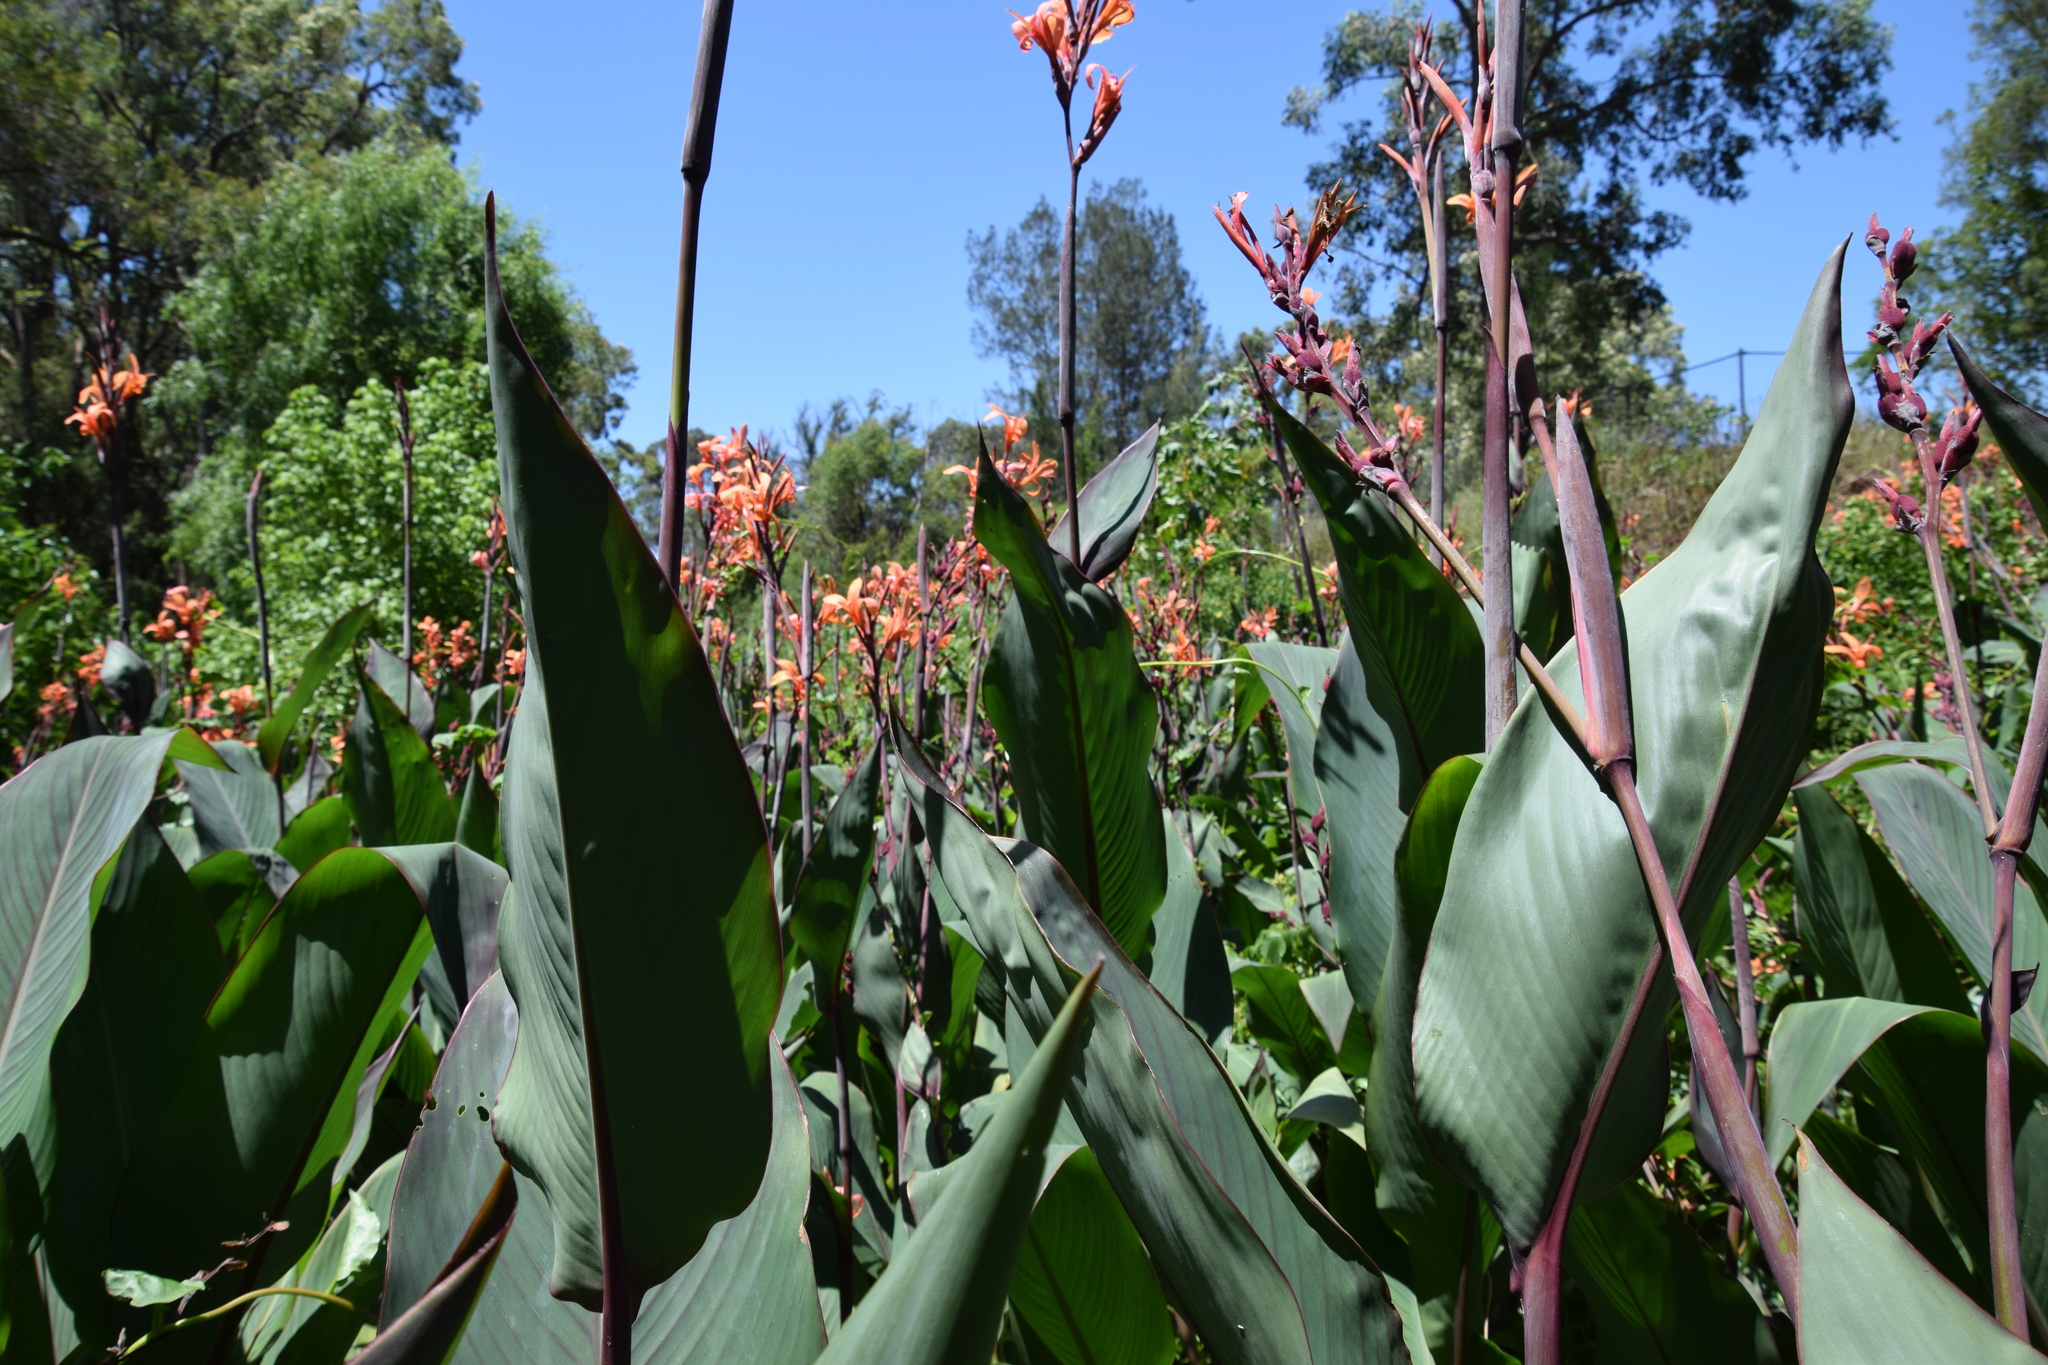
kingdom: Plantae
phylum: Tracheophyta
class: Liliopsida
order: Zingiberales
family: Cannaceae
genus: Canna
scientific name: Canna indica
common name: Indian shot
